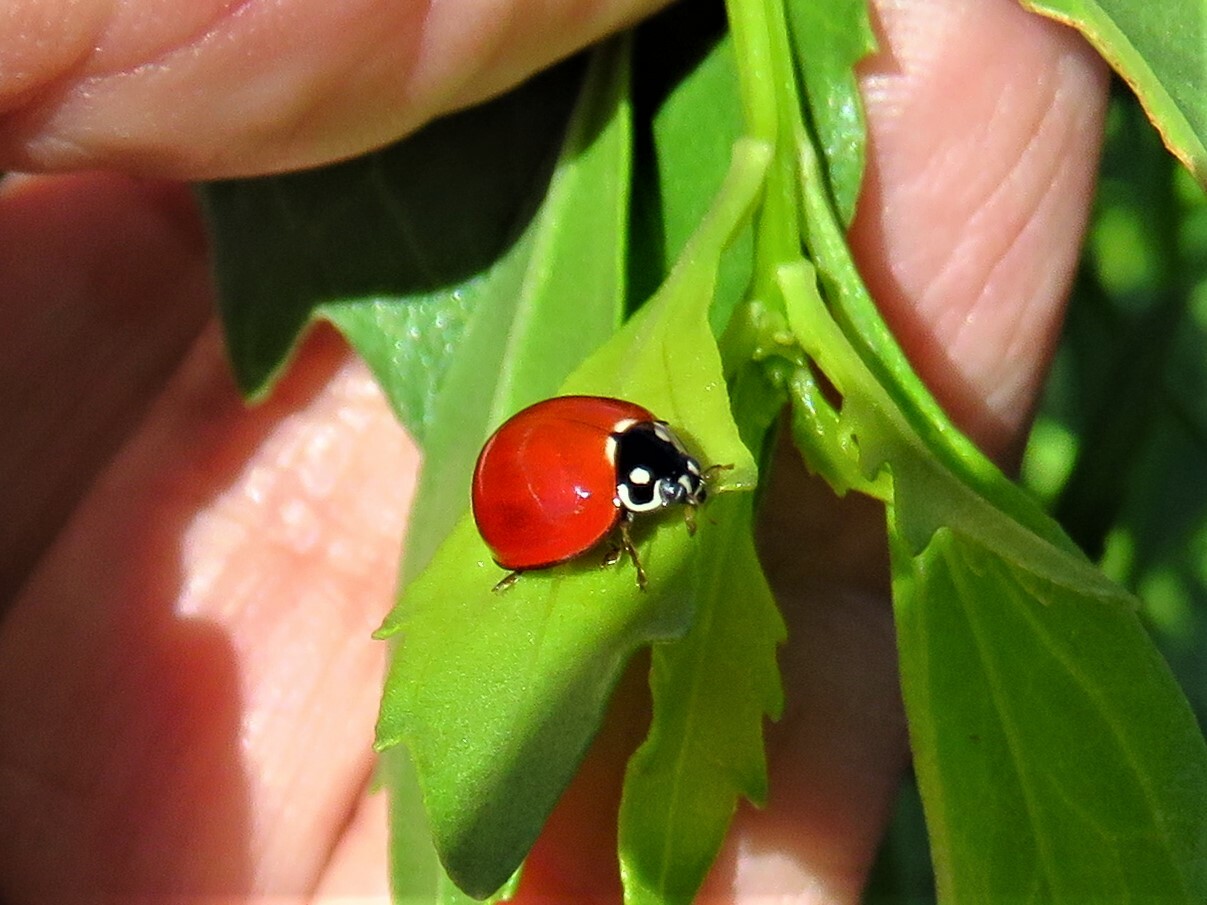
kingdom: Animalia
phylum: Arthropoda
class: Insecta
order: Coleoptera
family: Coccinellidae
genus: Cycloneda
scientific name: Cycloneda sanguinea
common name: Ladybird beetle
